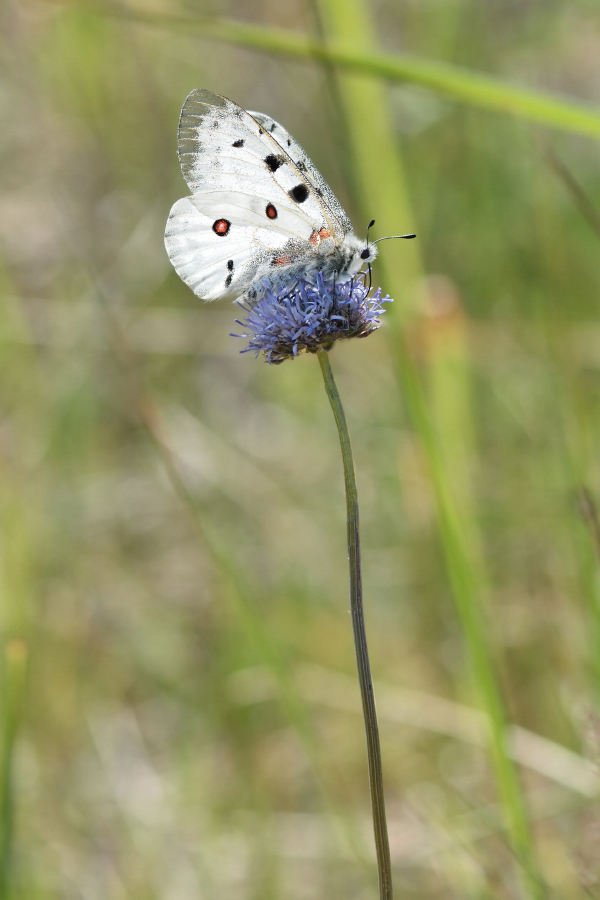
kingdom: Animalia
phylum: Arthropoda
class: Insecta
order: Lepidoptera
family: Papilionidae
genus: Parnassius
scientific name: Parnassius apollo
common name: Apollo
